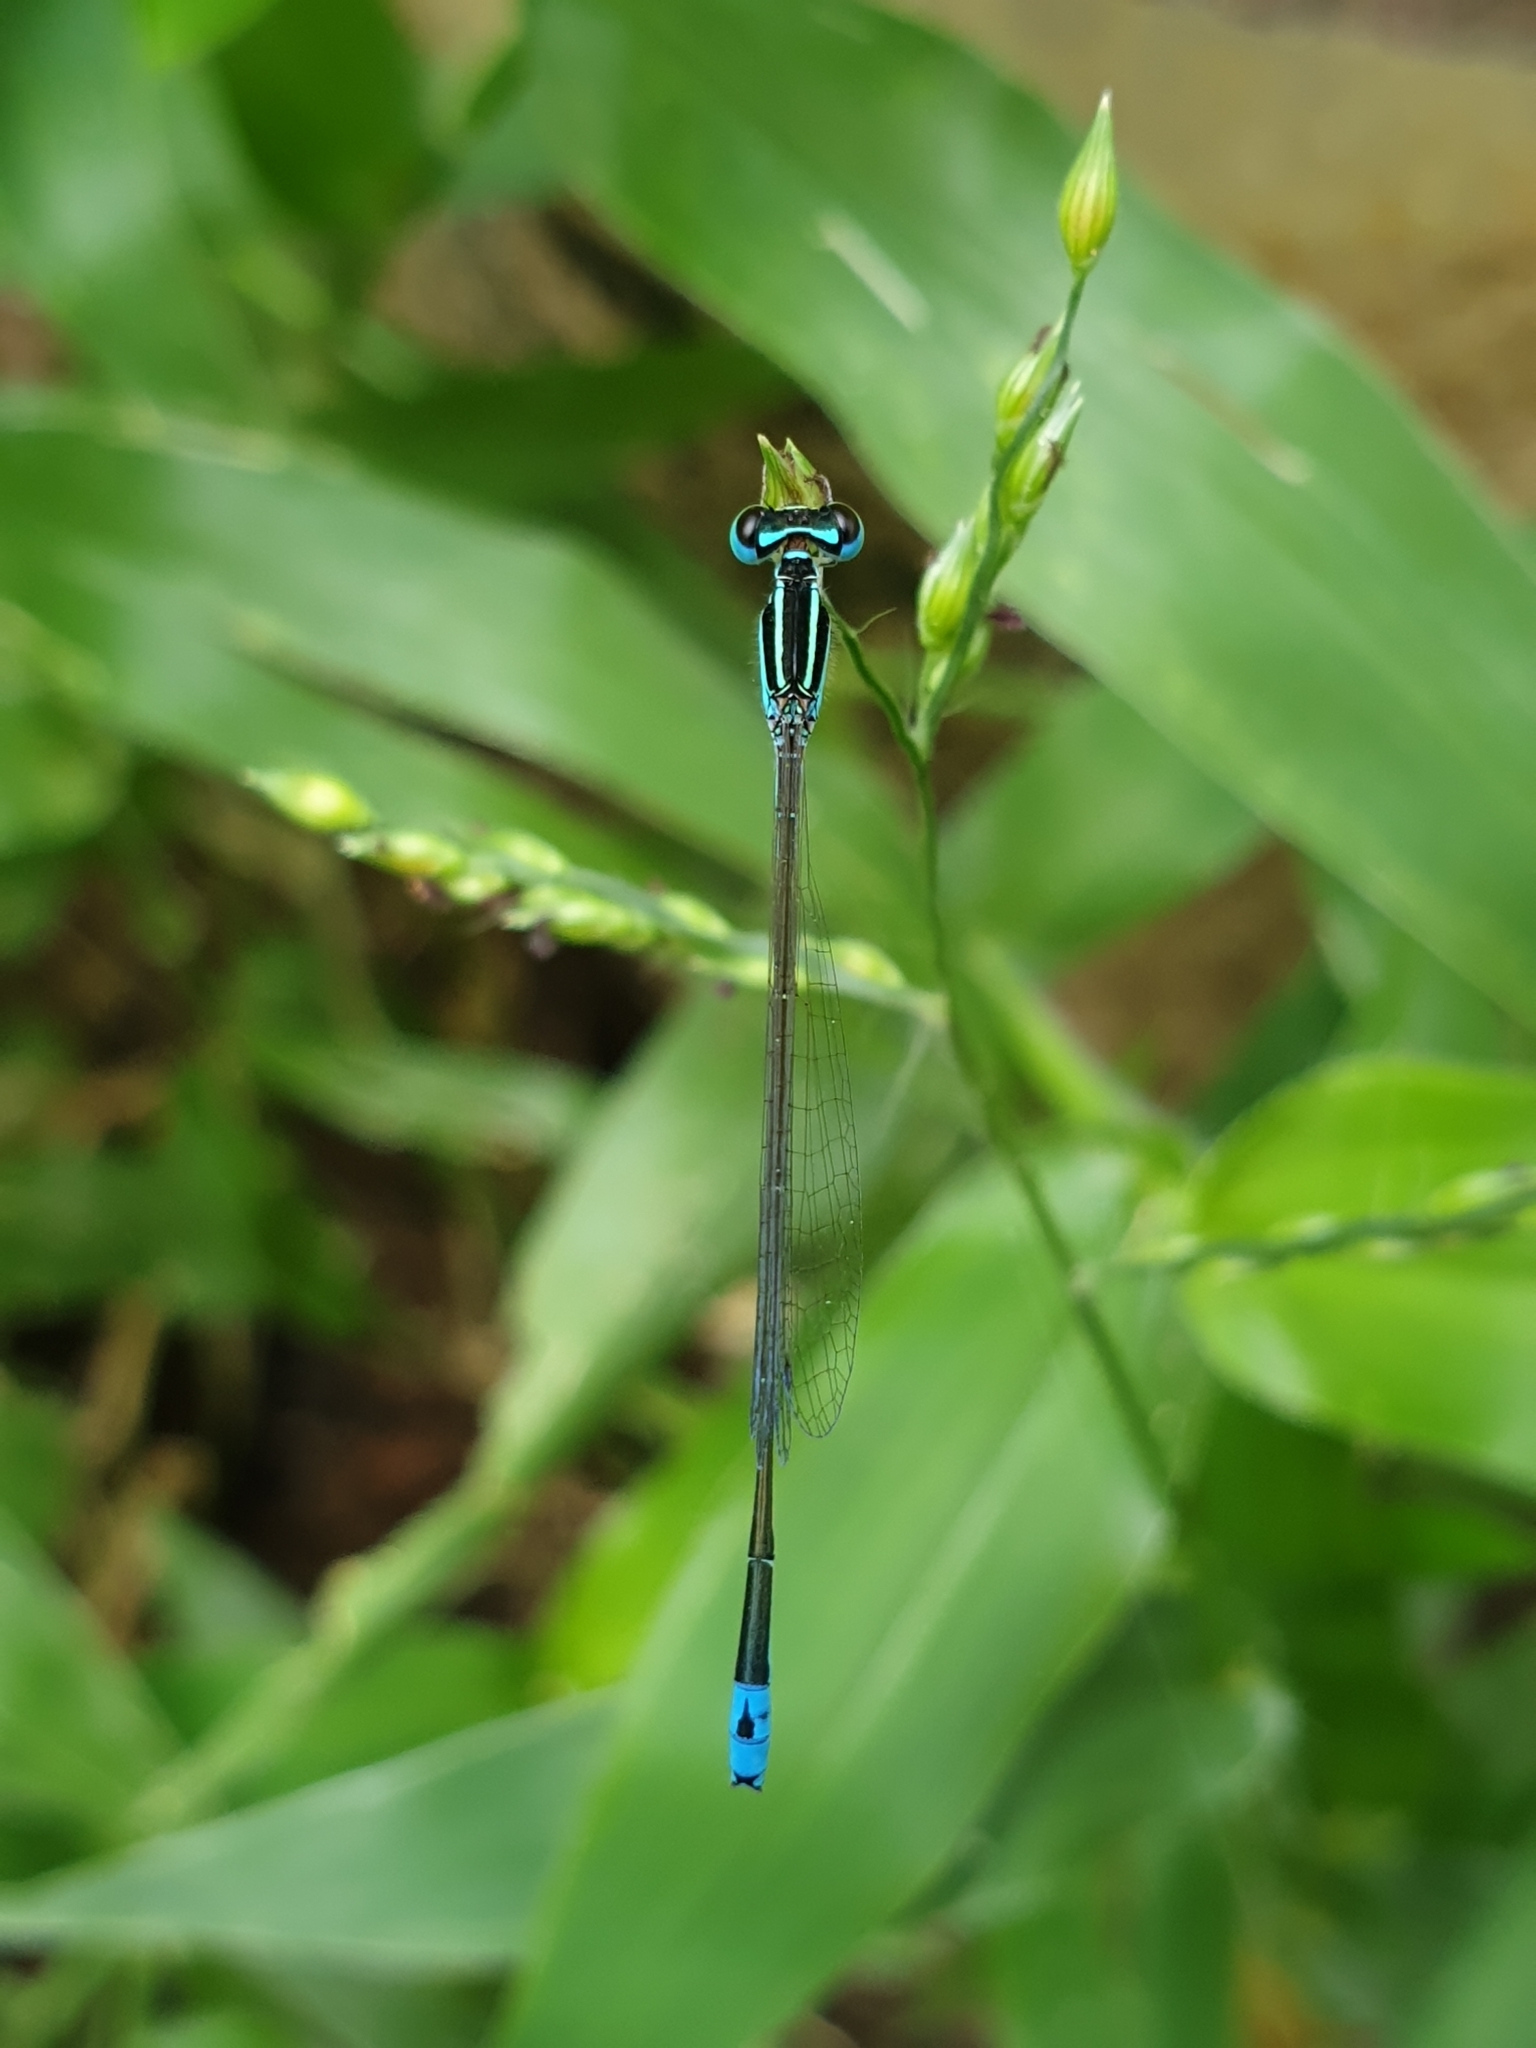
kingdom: Animalia
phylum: Arthropoda
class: Insecta
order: Odonata
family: Coenagrionidae
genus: Aciagrion
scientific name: Aciagrion occidentale
